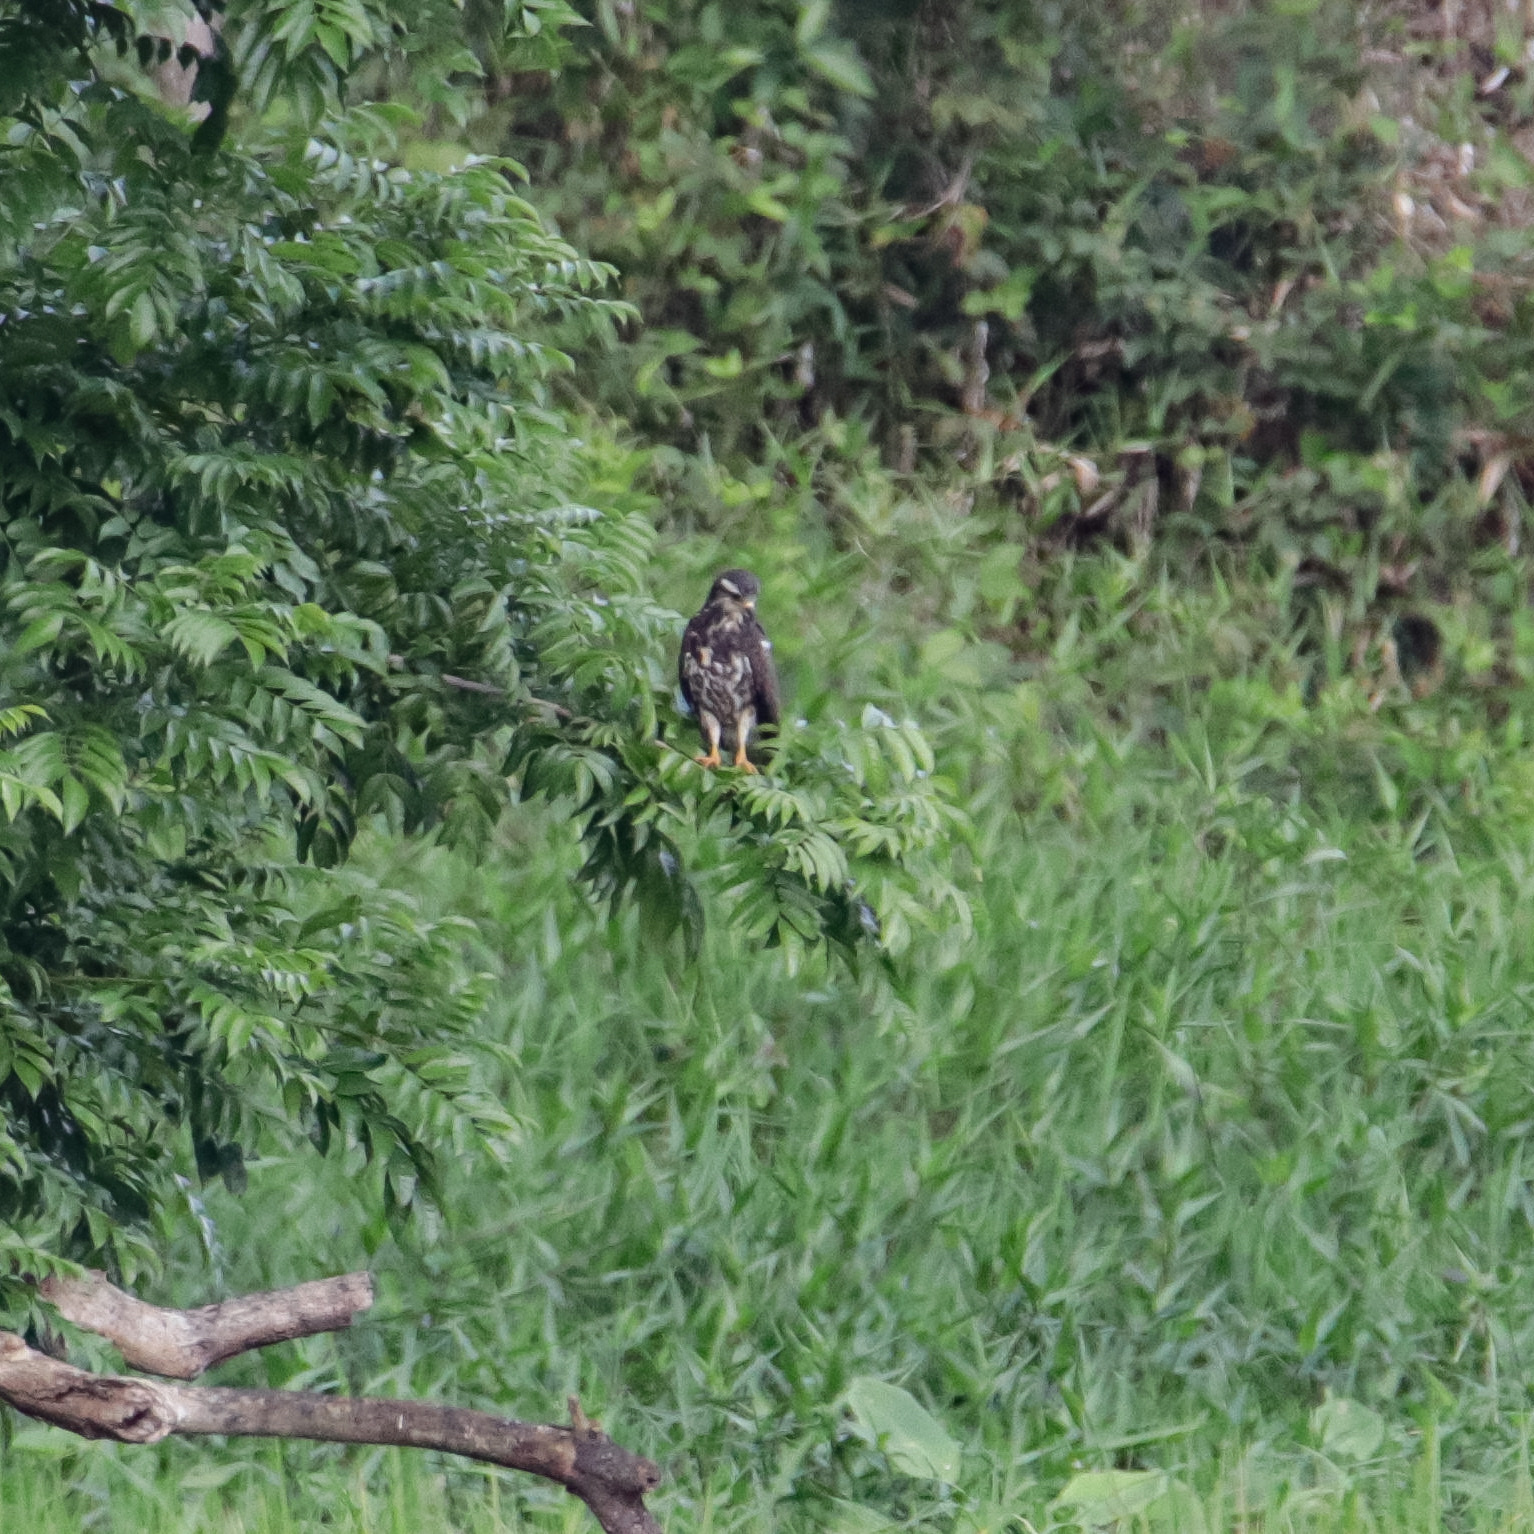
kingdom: Animalia
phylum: Chordata
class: Aves
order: Accipitriformes
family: Accipitridae
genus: Rostrhamus
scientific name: Rostrhamus sociabilis
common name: Snail kite
